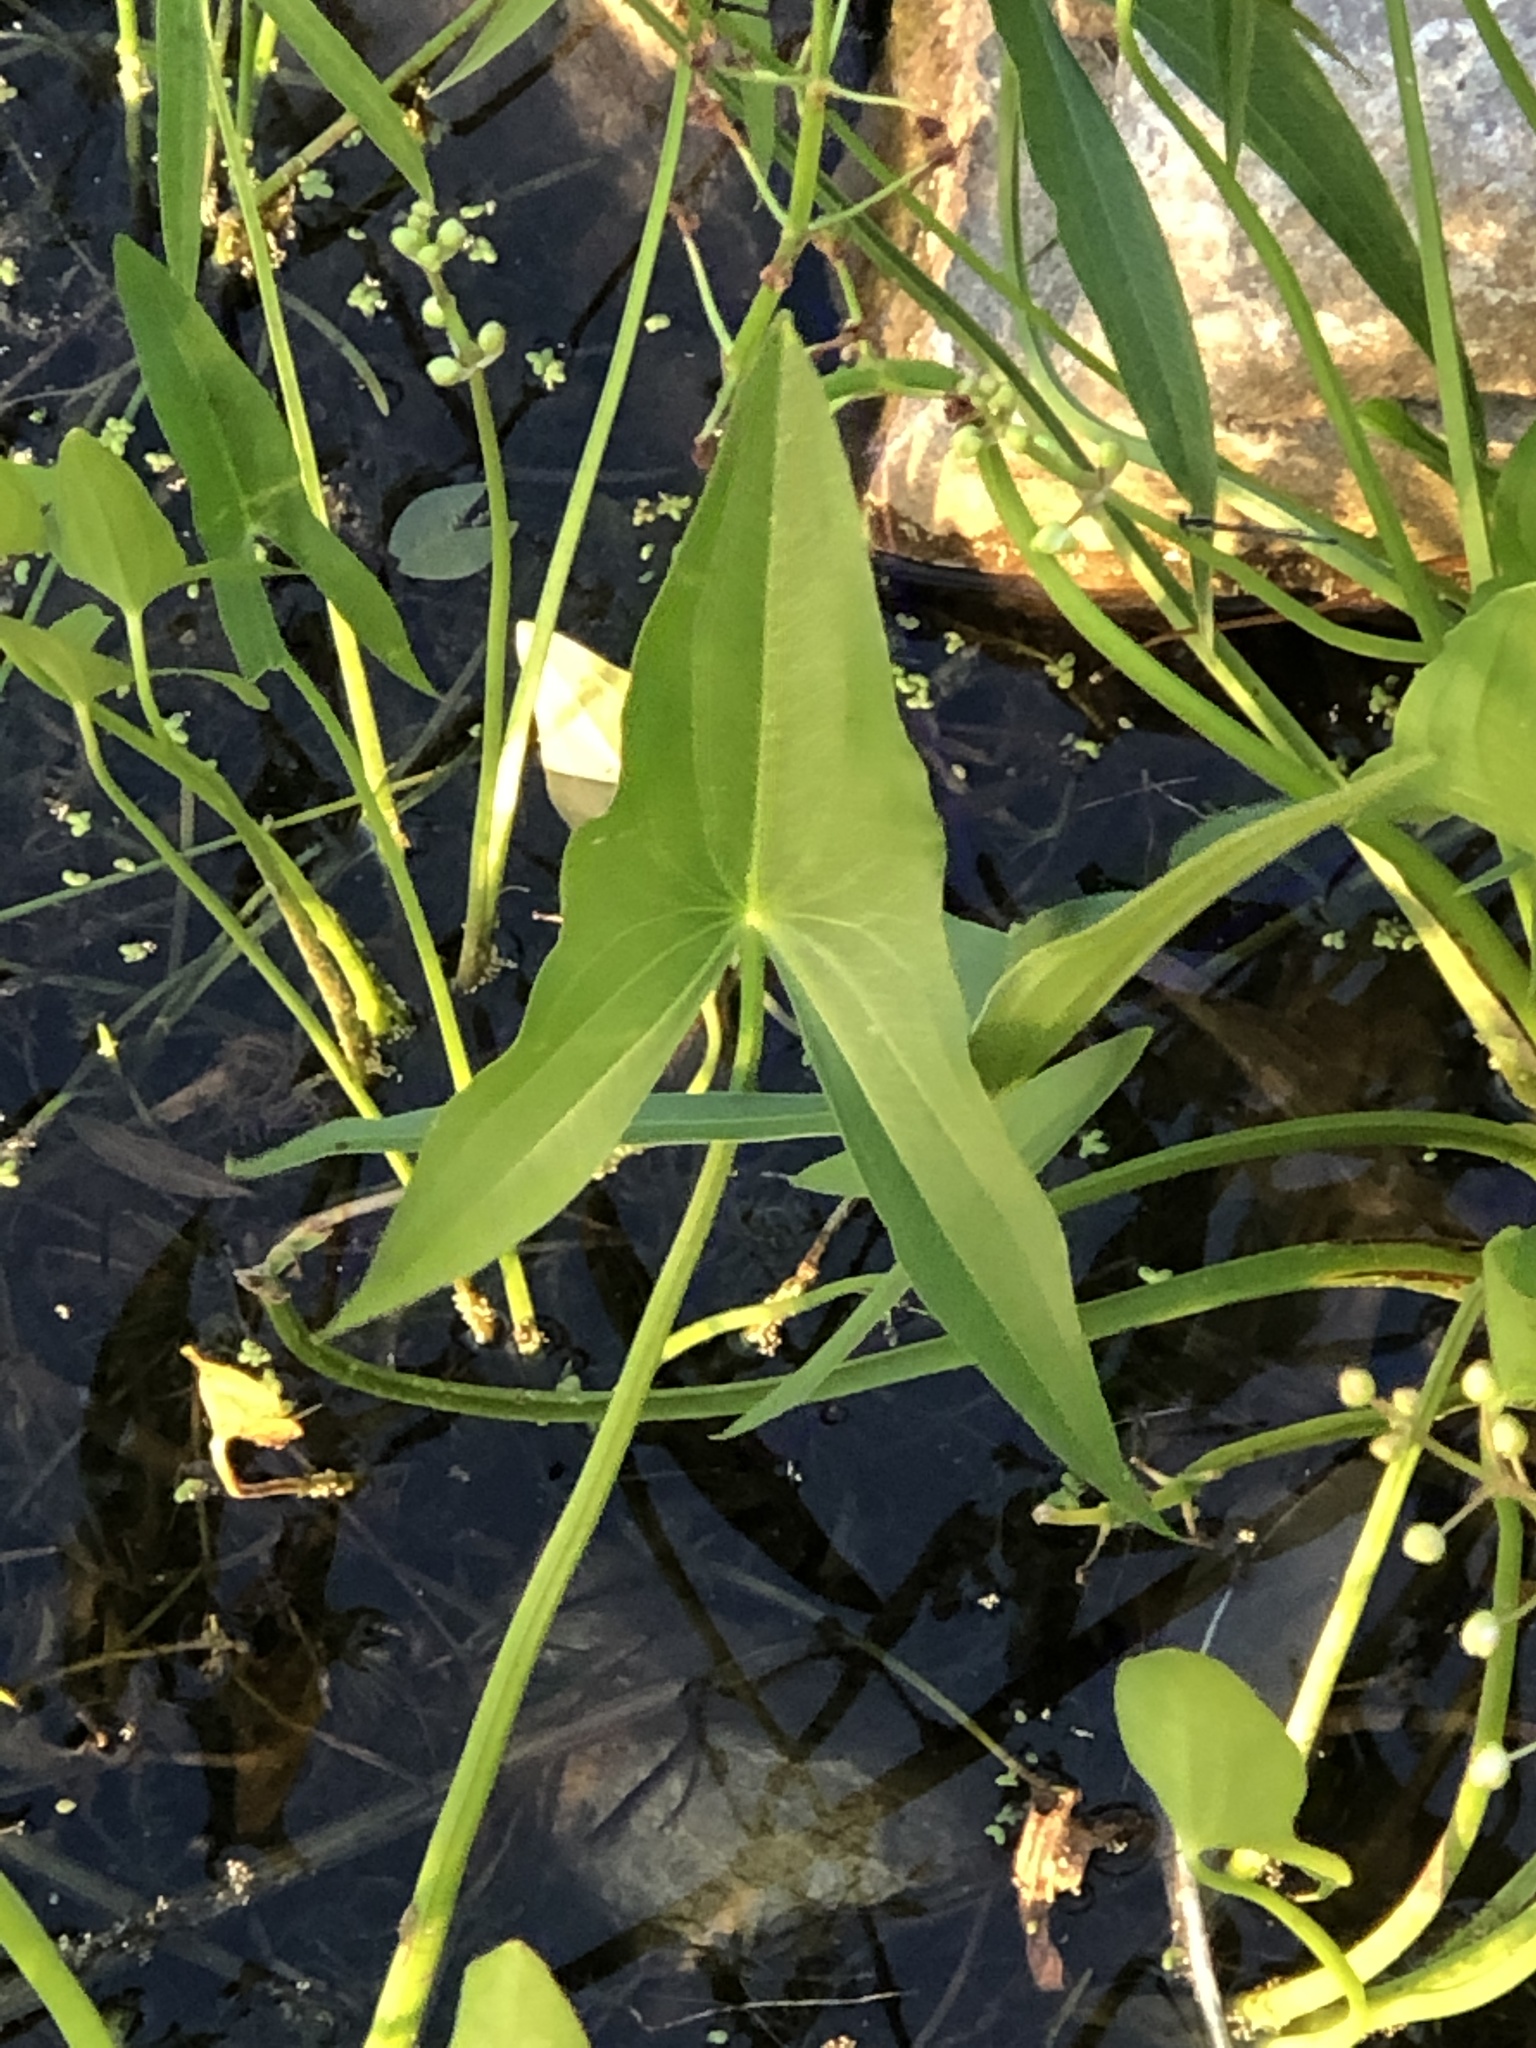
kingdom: Plantae
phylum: Tracheophyta
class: Liliopsida
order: Alismatales
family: Alismataceae
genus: Sagittaria
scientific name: Sagittaria latifolia
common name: Duck-potato
